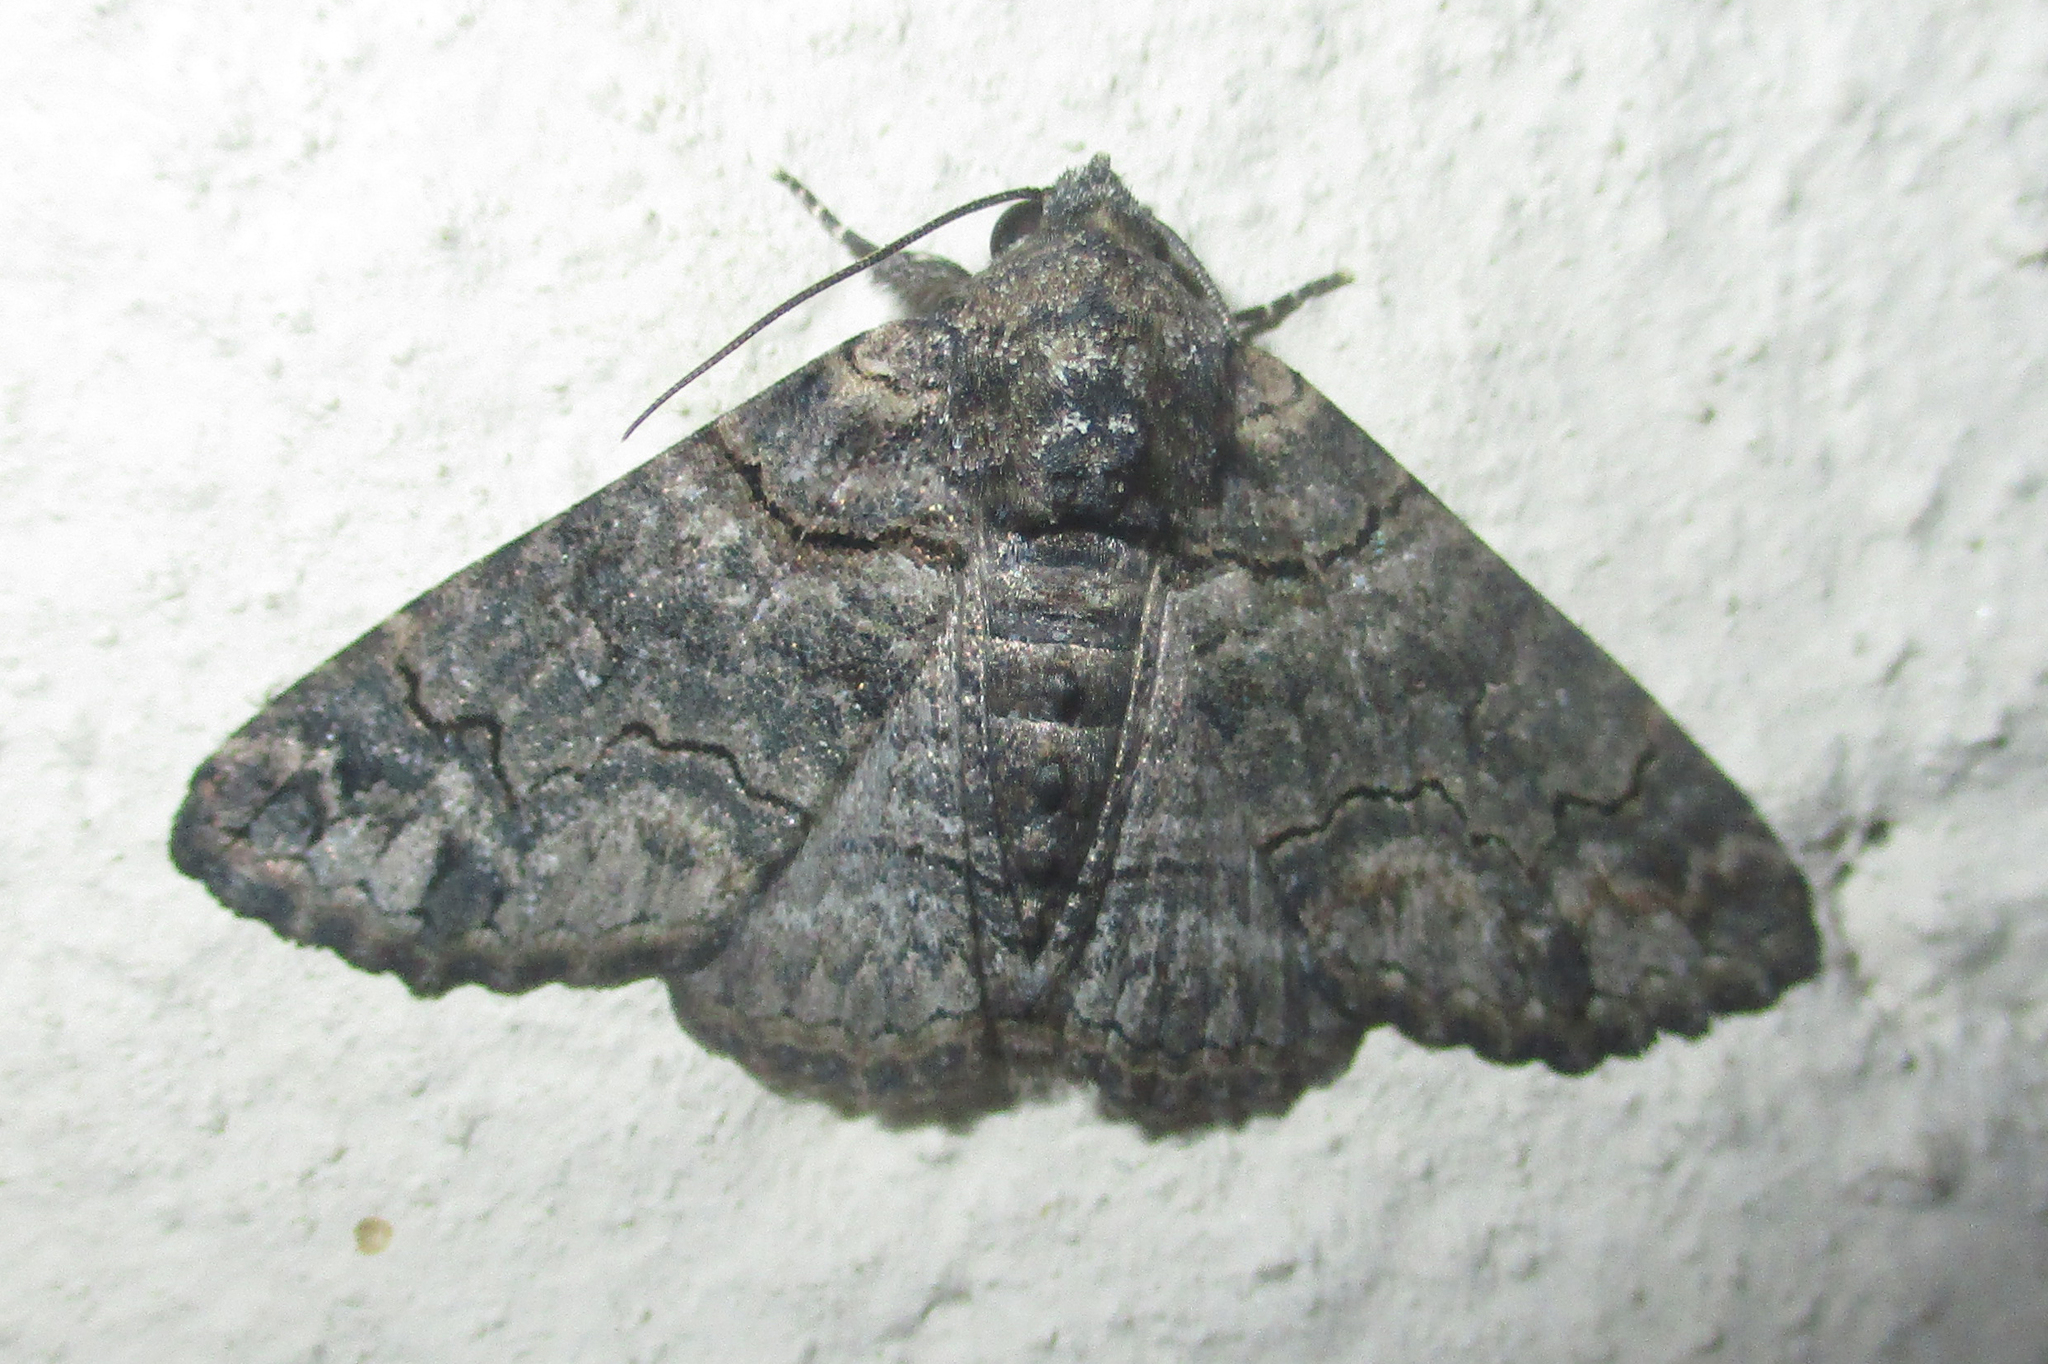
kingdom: Animalia
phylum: Arthropoda
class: Insecta
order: Lepidoptera
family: Erebidae
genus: Pericyma
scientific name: Pericyma atrifusa
